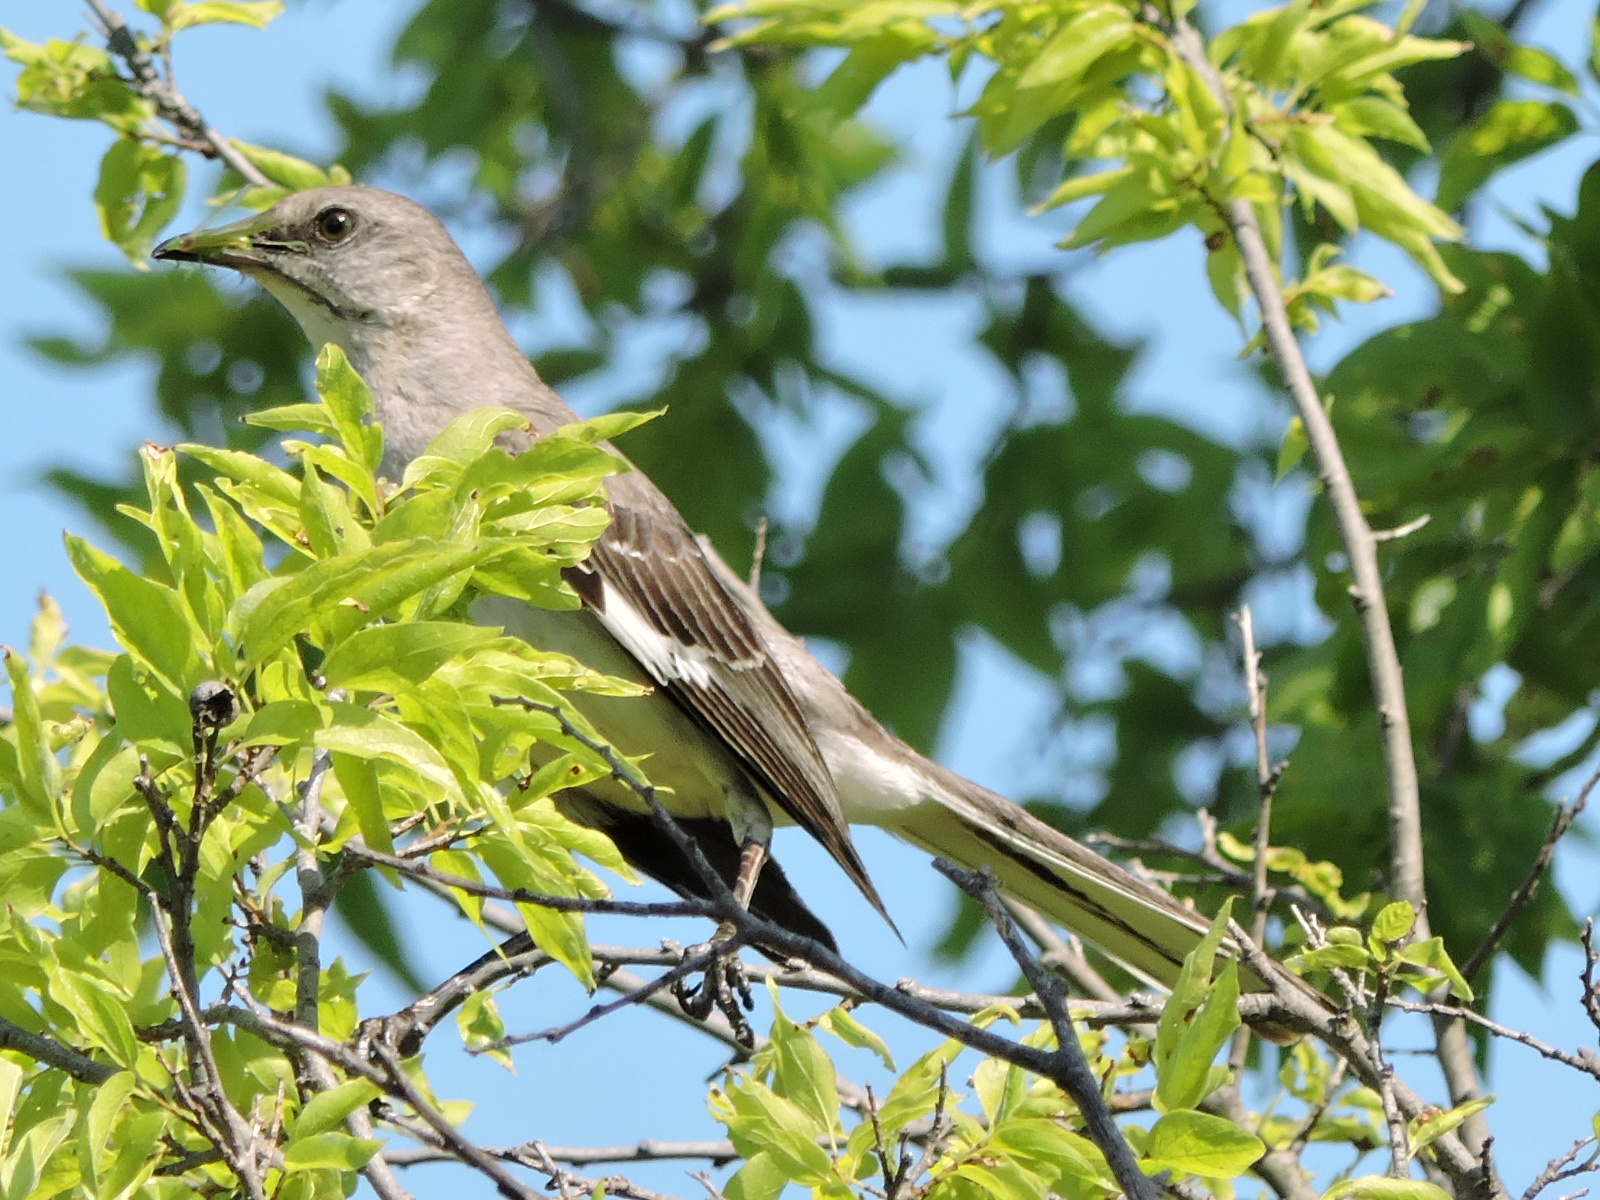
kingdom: Animalia
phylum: Chordata
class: Aves
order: Passeriformes
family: Mimidae
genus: Mimus
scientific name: Mimus polyglottos
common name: Northern mockingbird
